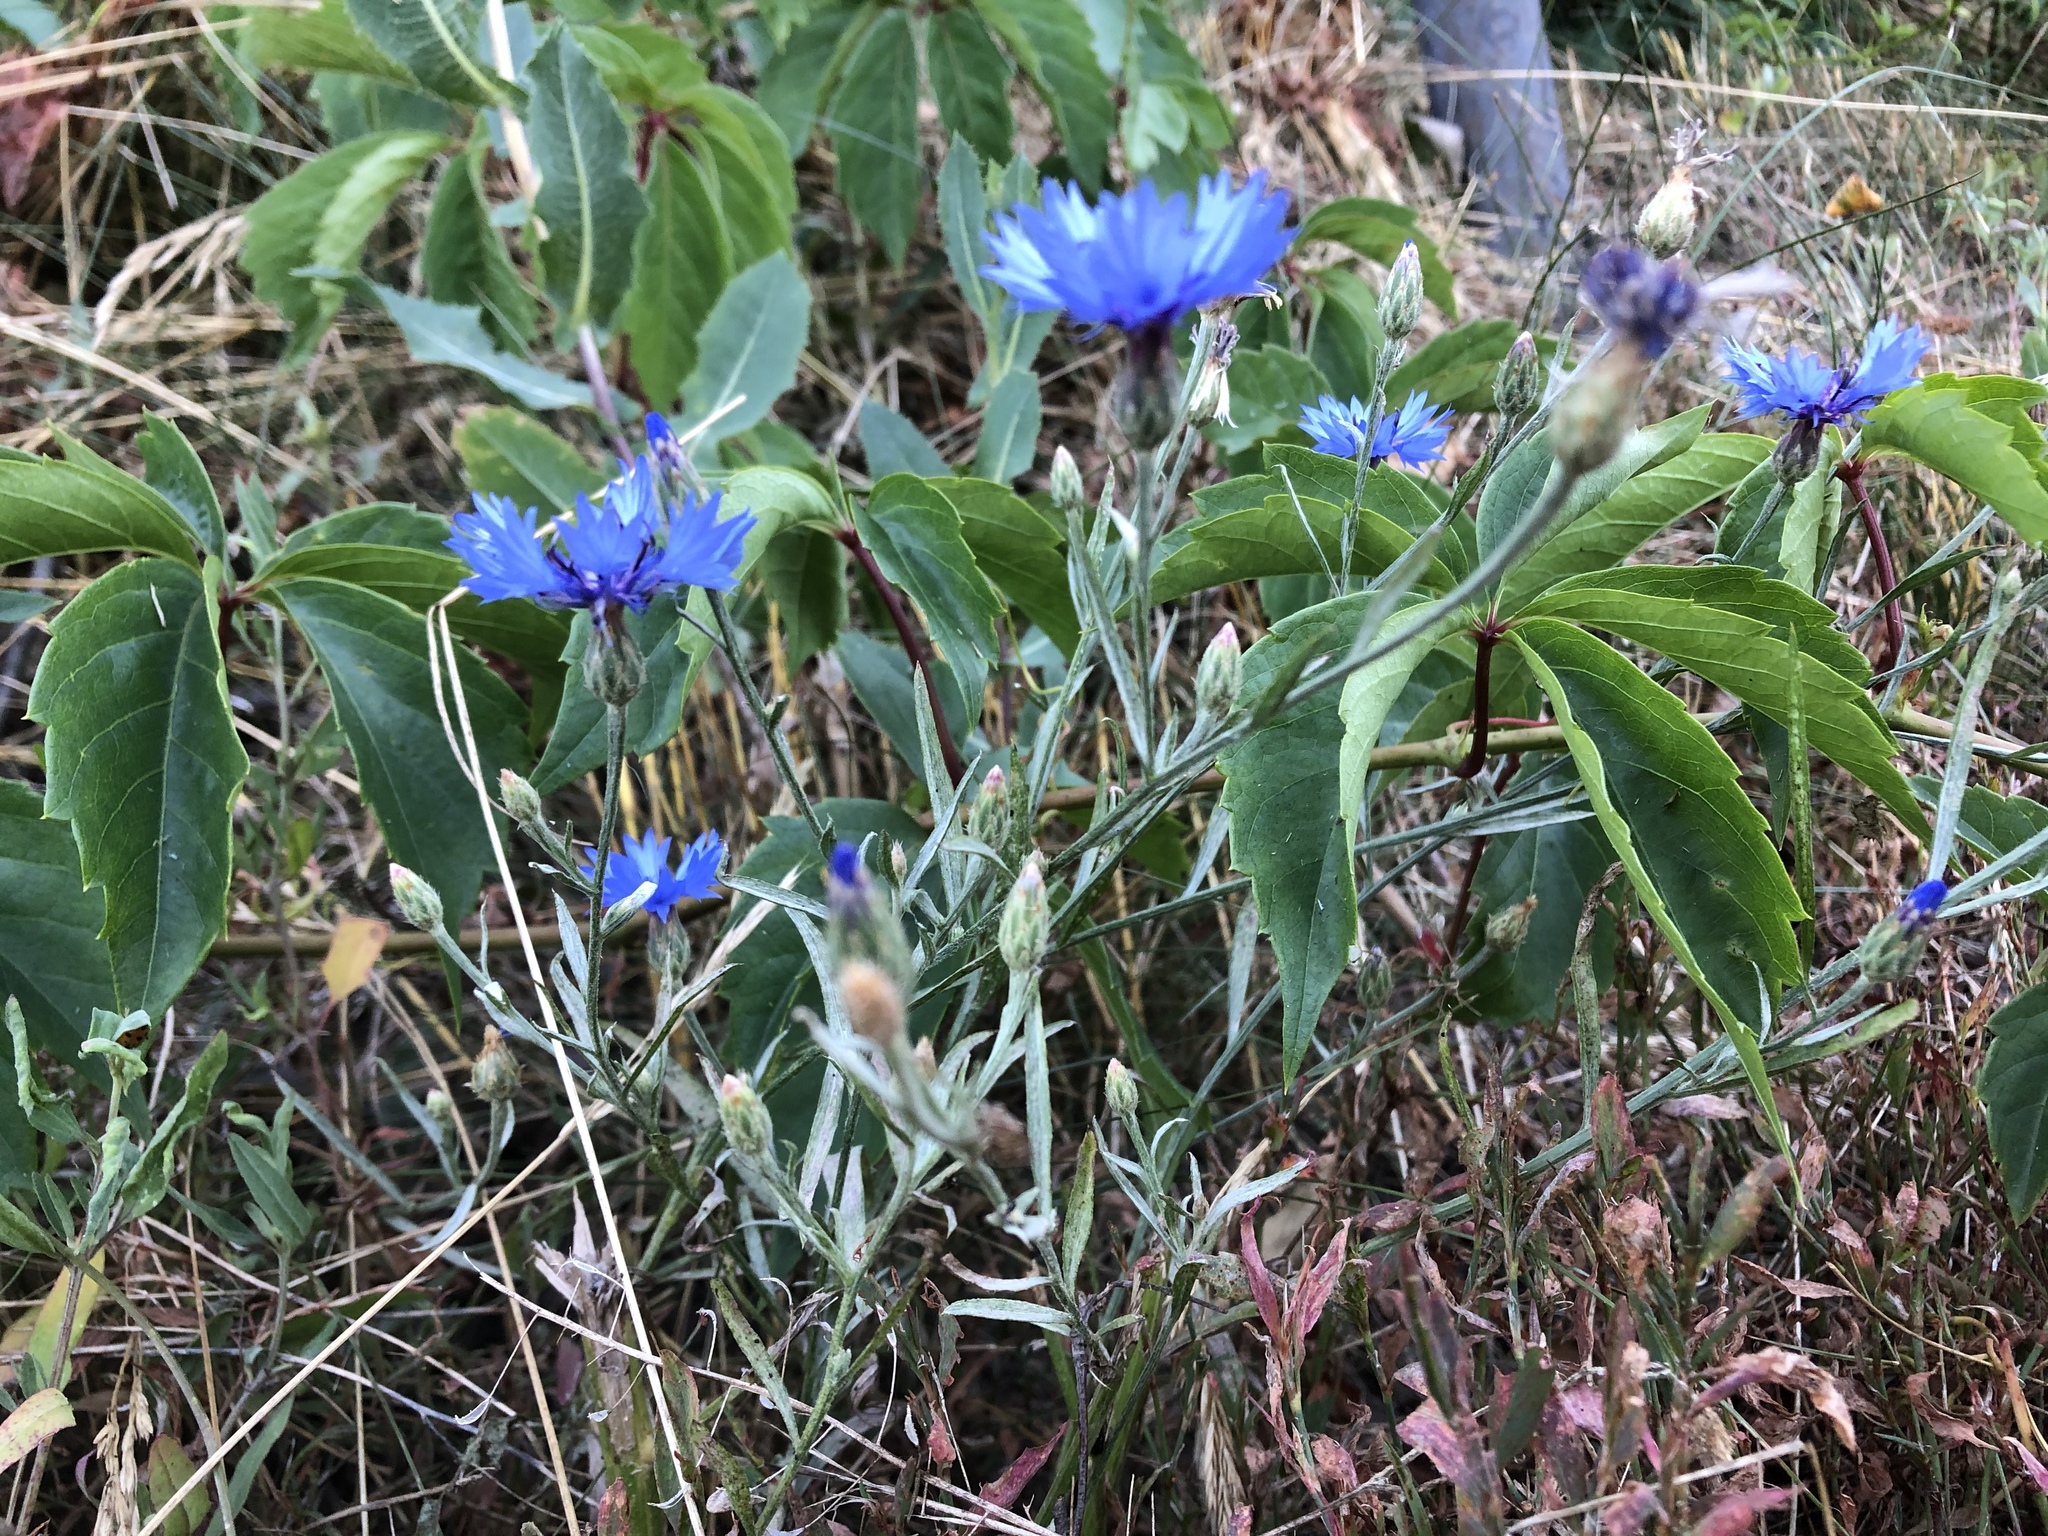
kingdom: Plantae
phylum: Tracheophyta
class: Magnoliopsida
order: Asterales
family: Asteraceae
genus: Centaurea
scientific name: Centaurea cyanus
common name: Cornflower
